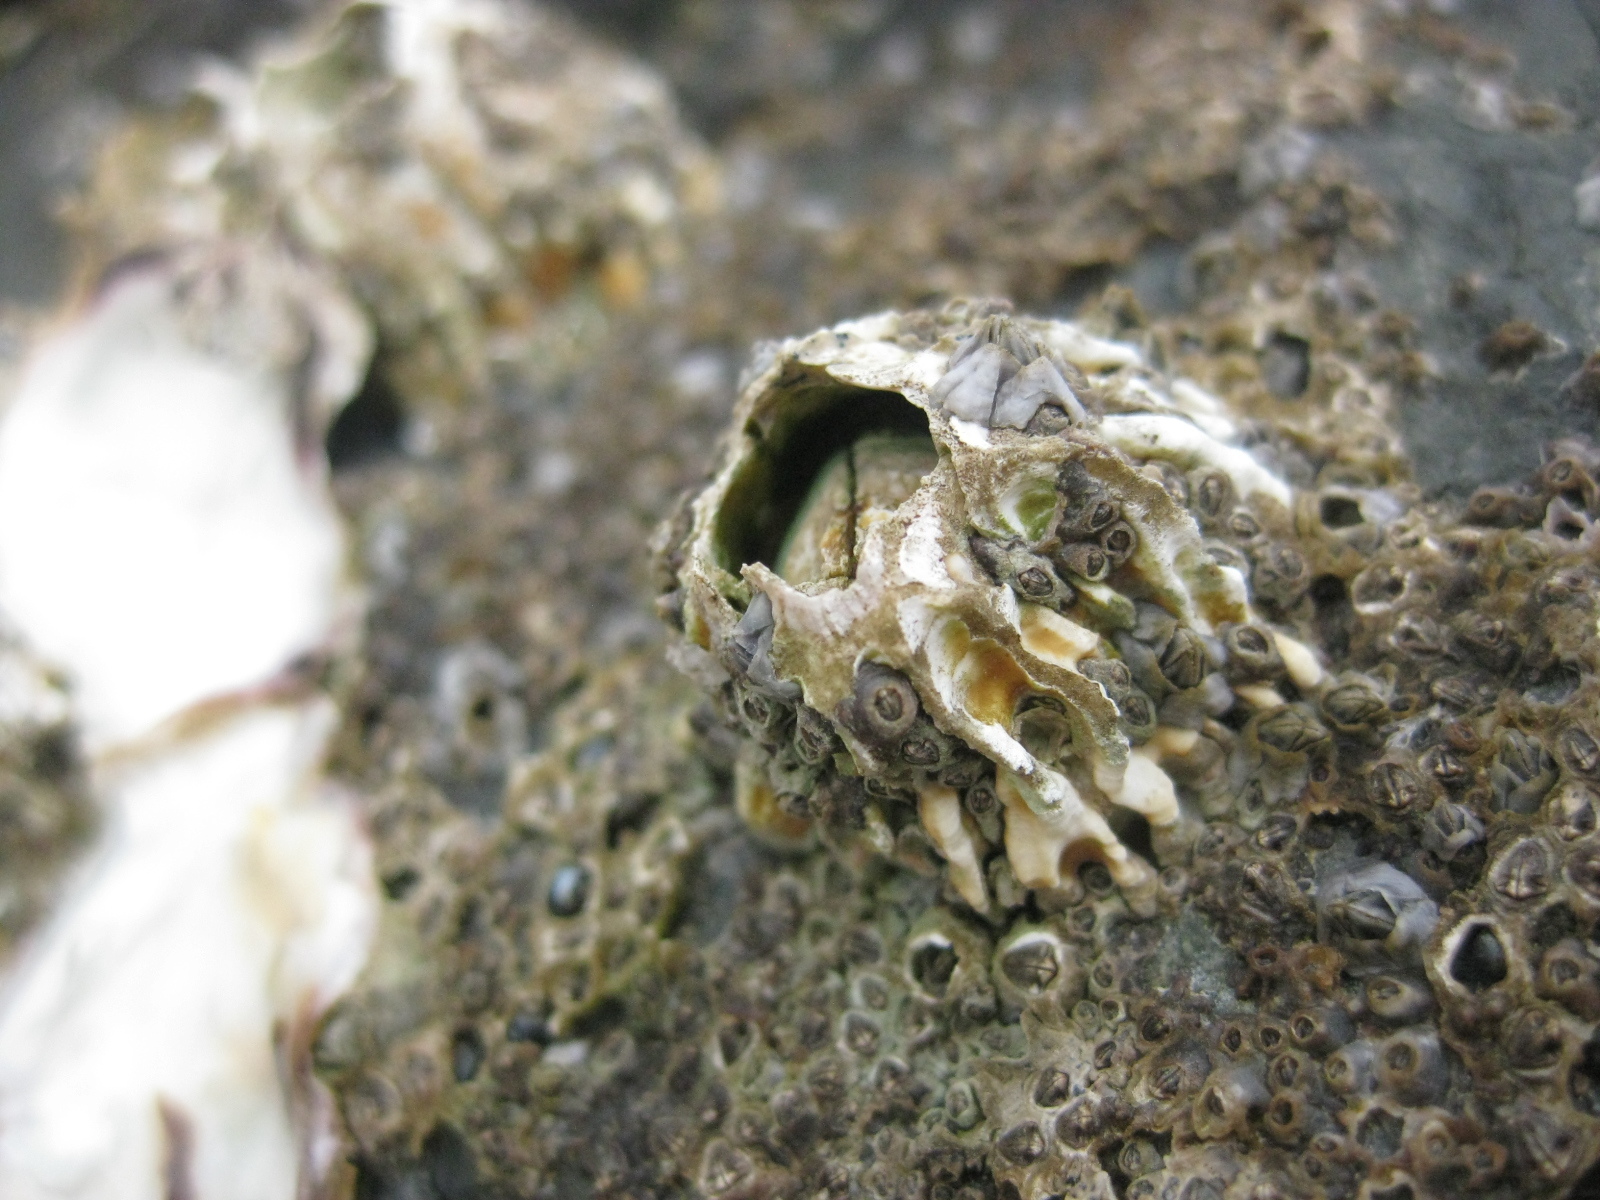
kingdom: Animalia
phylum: Arthropoda
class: Maxillopoda
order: Sessilia
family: Tetraclitidae
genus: Epopella
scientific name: Epopella plicata
